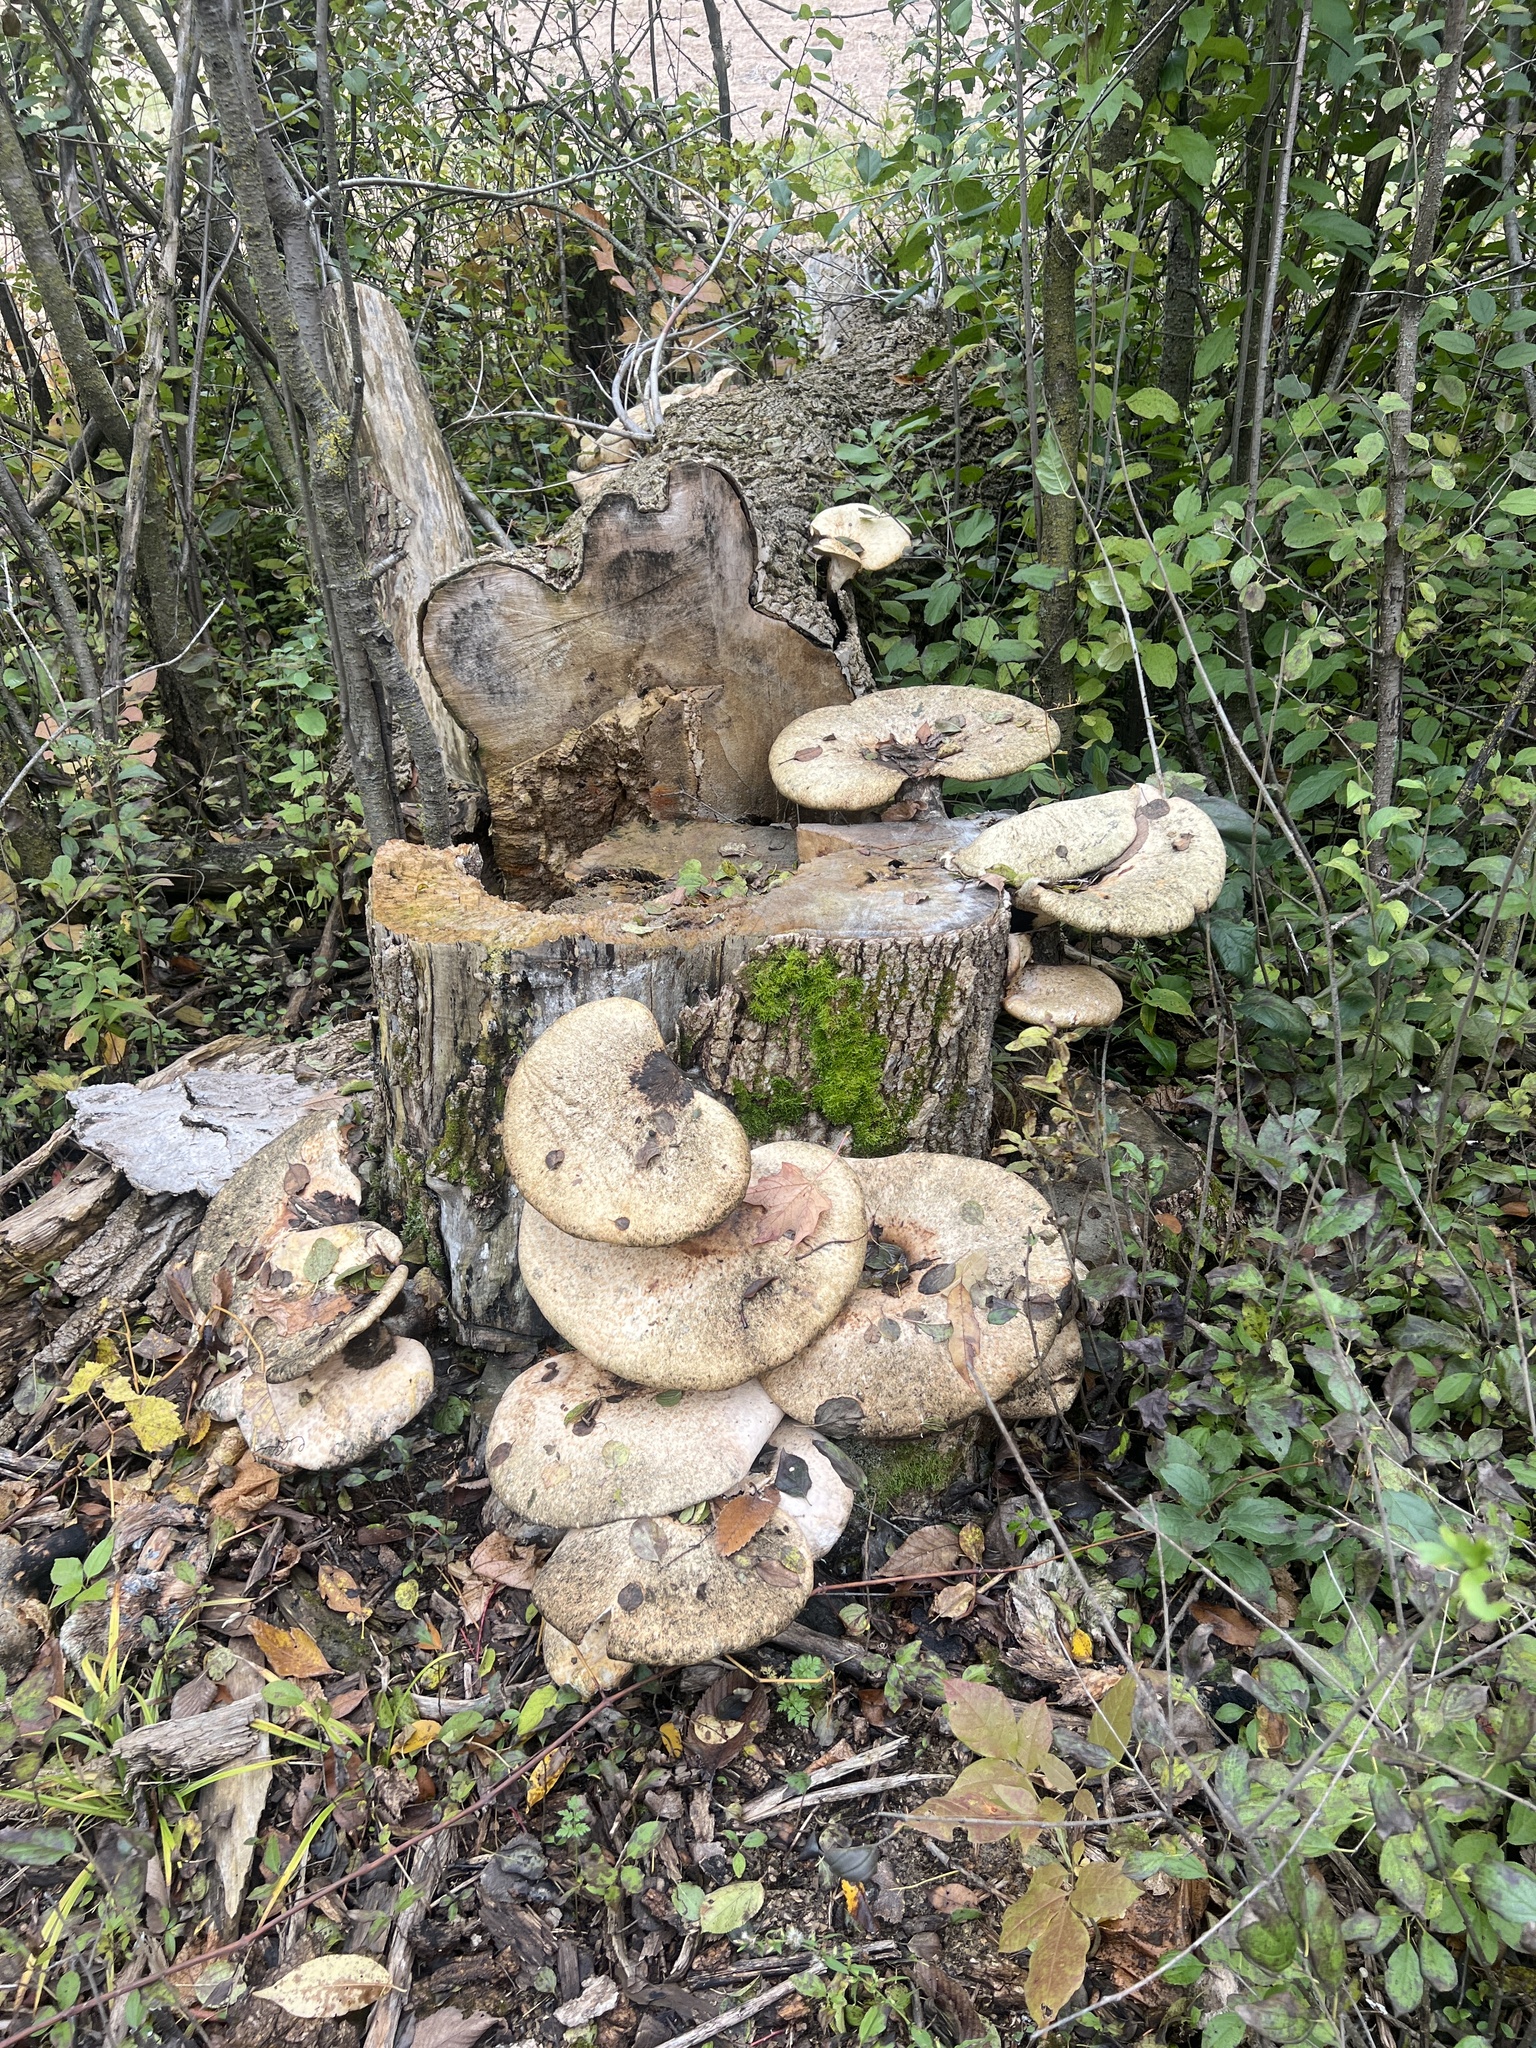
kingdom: Fungi
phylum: Basidiomycota
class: Agaricomycetes
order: Polyporales
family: Polyporaceae
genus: Cerioporus
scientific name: Cerioporus squamosus
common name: Dryad's saddle
